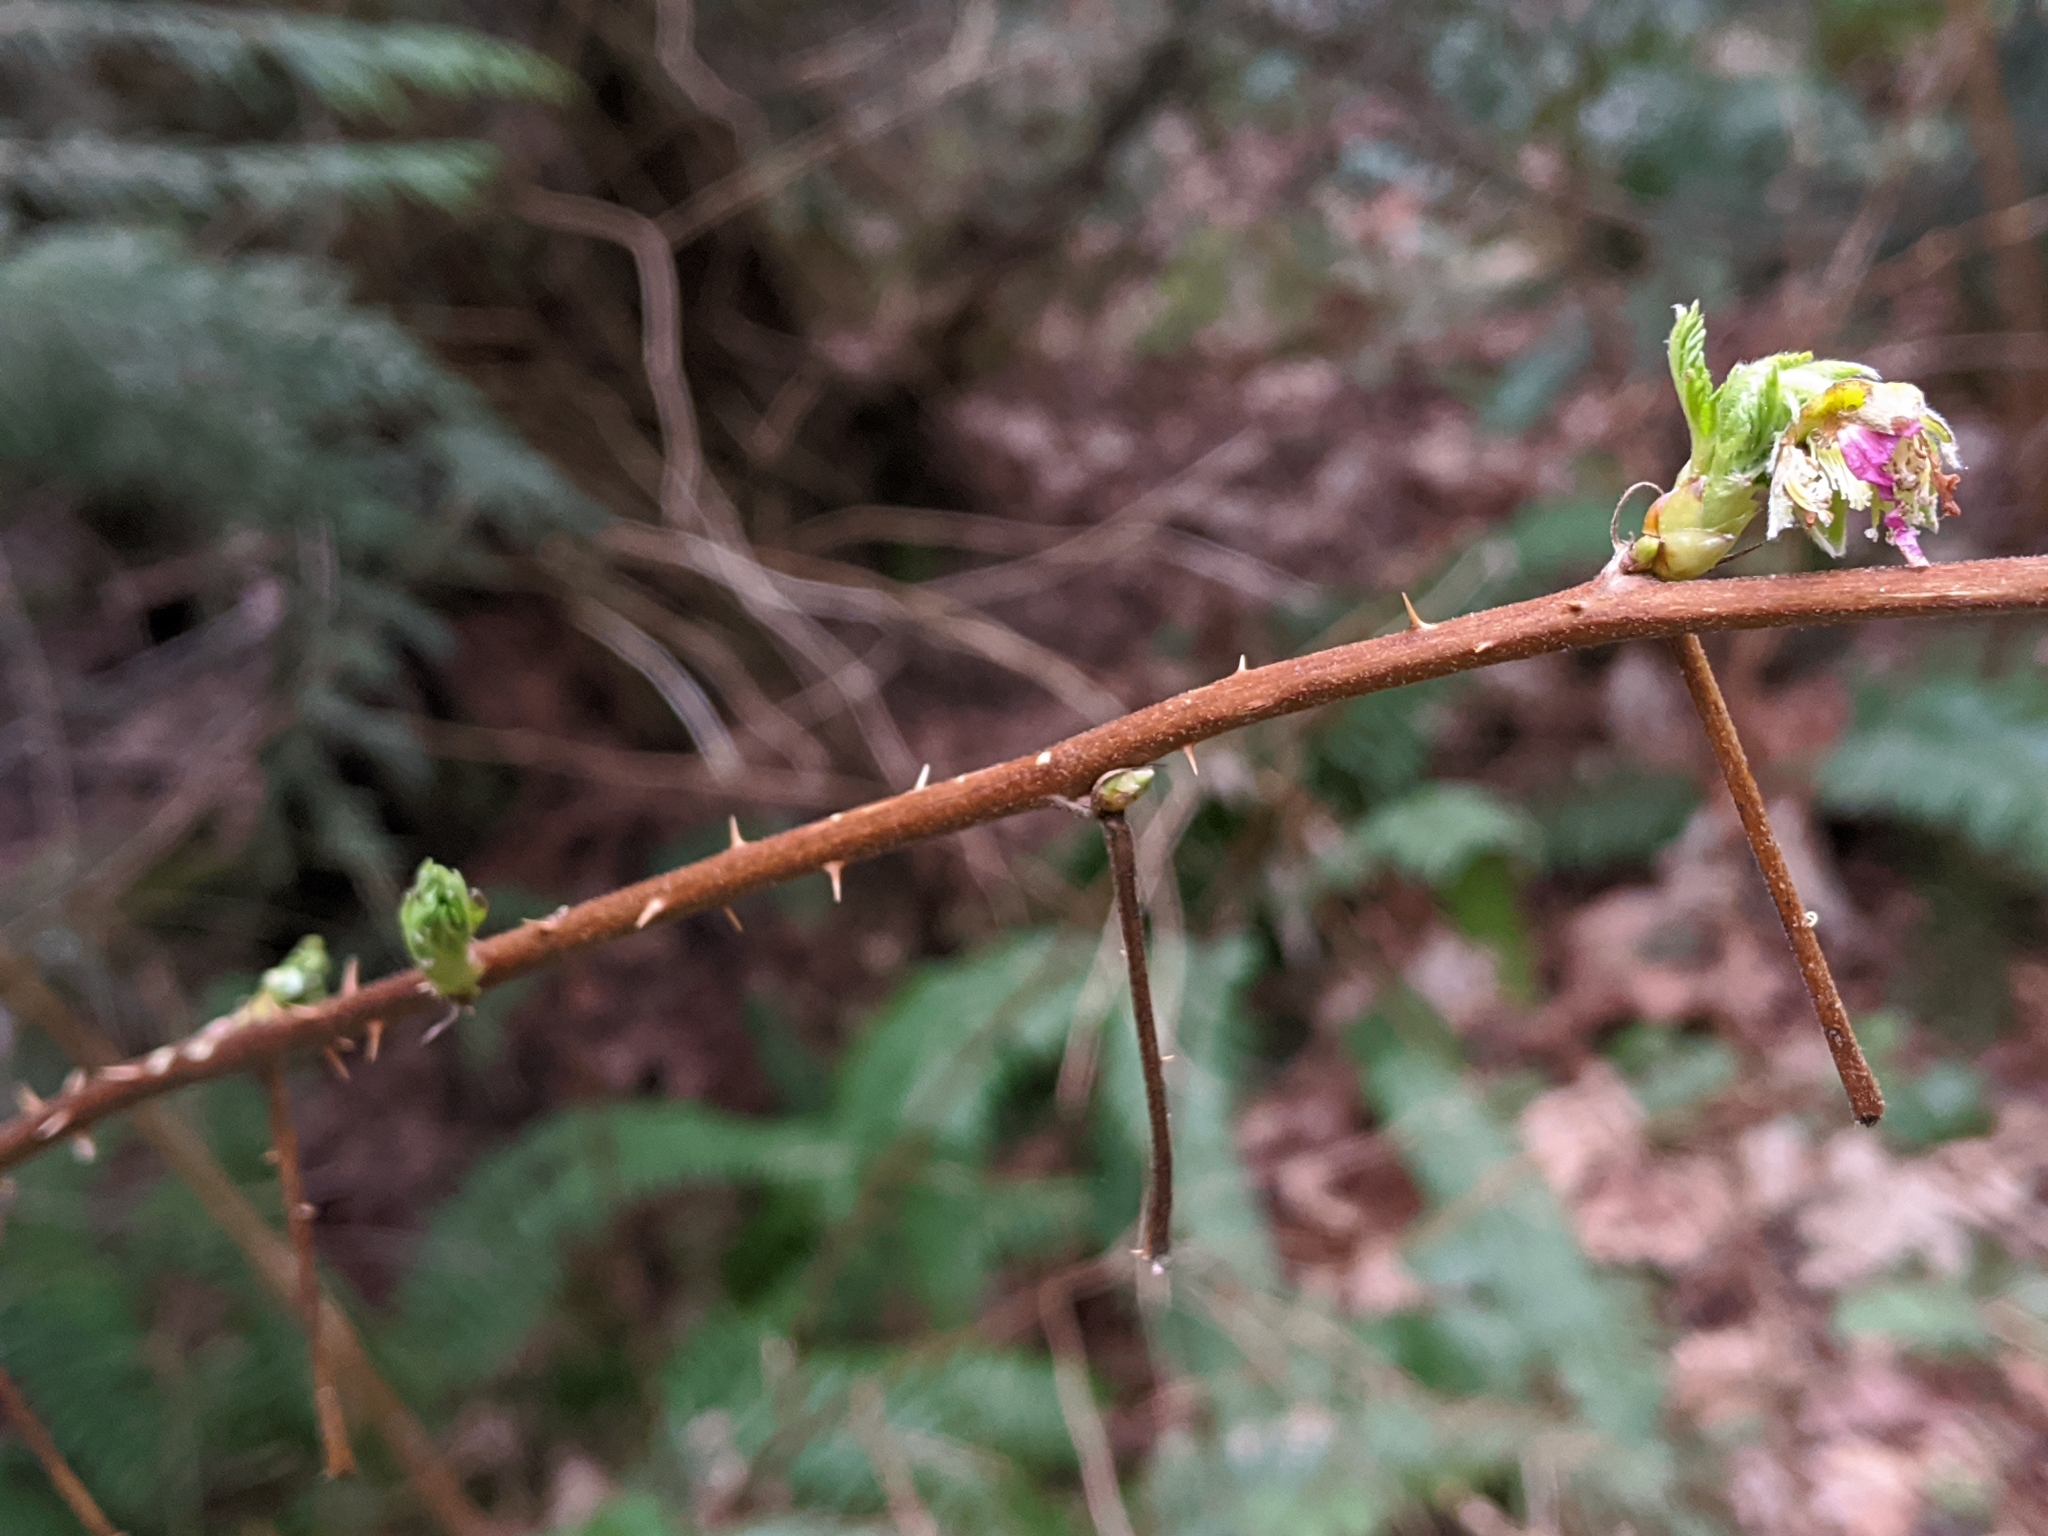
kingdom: Plantae
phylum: Tracheophyta
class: Magnoliopsida
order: Rosales
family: Rosaceae
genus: Rubus
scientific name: Rubus spectabilis
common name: Salmonberry
